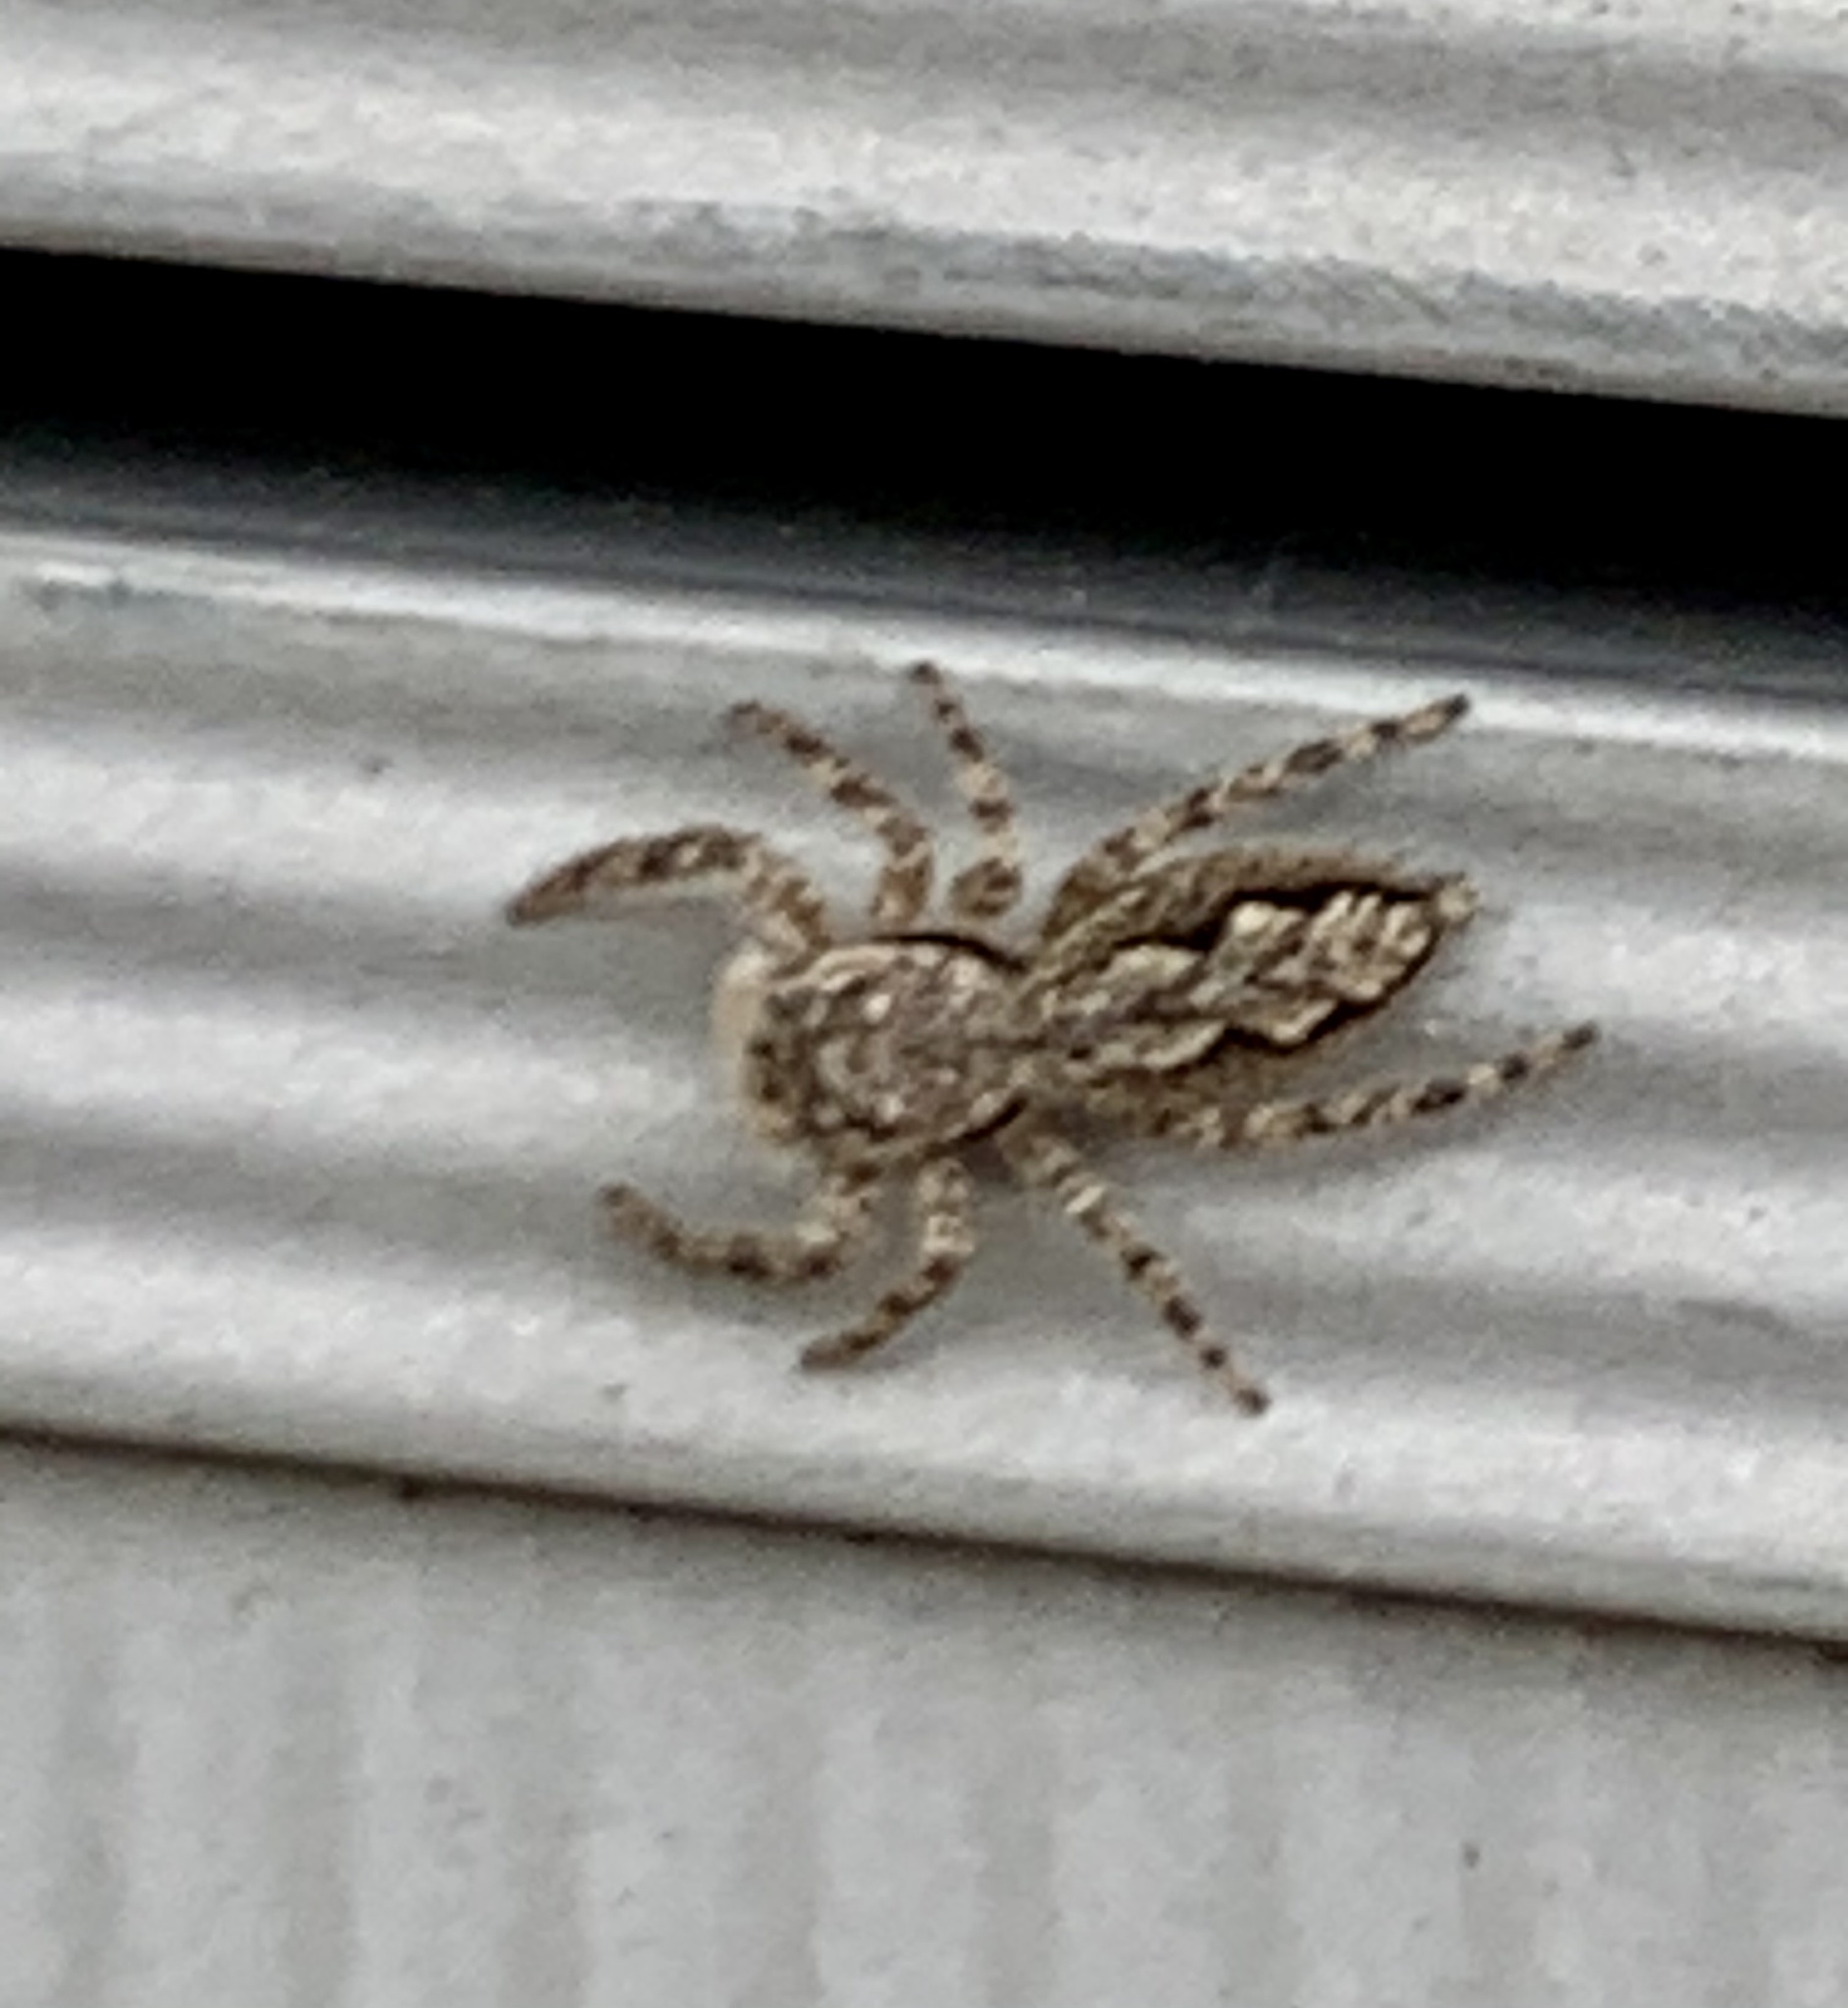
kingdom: Animalia
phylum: Arthropoda
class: Arachnida
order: Araneae
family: Salticidae
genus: Platycryptus
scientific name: Platycryptus undatus
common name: Tan jumping spider
